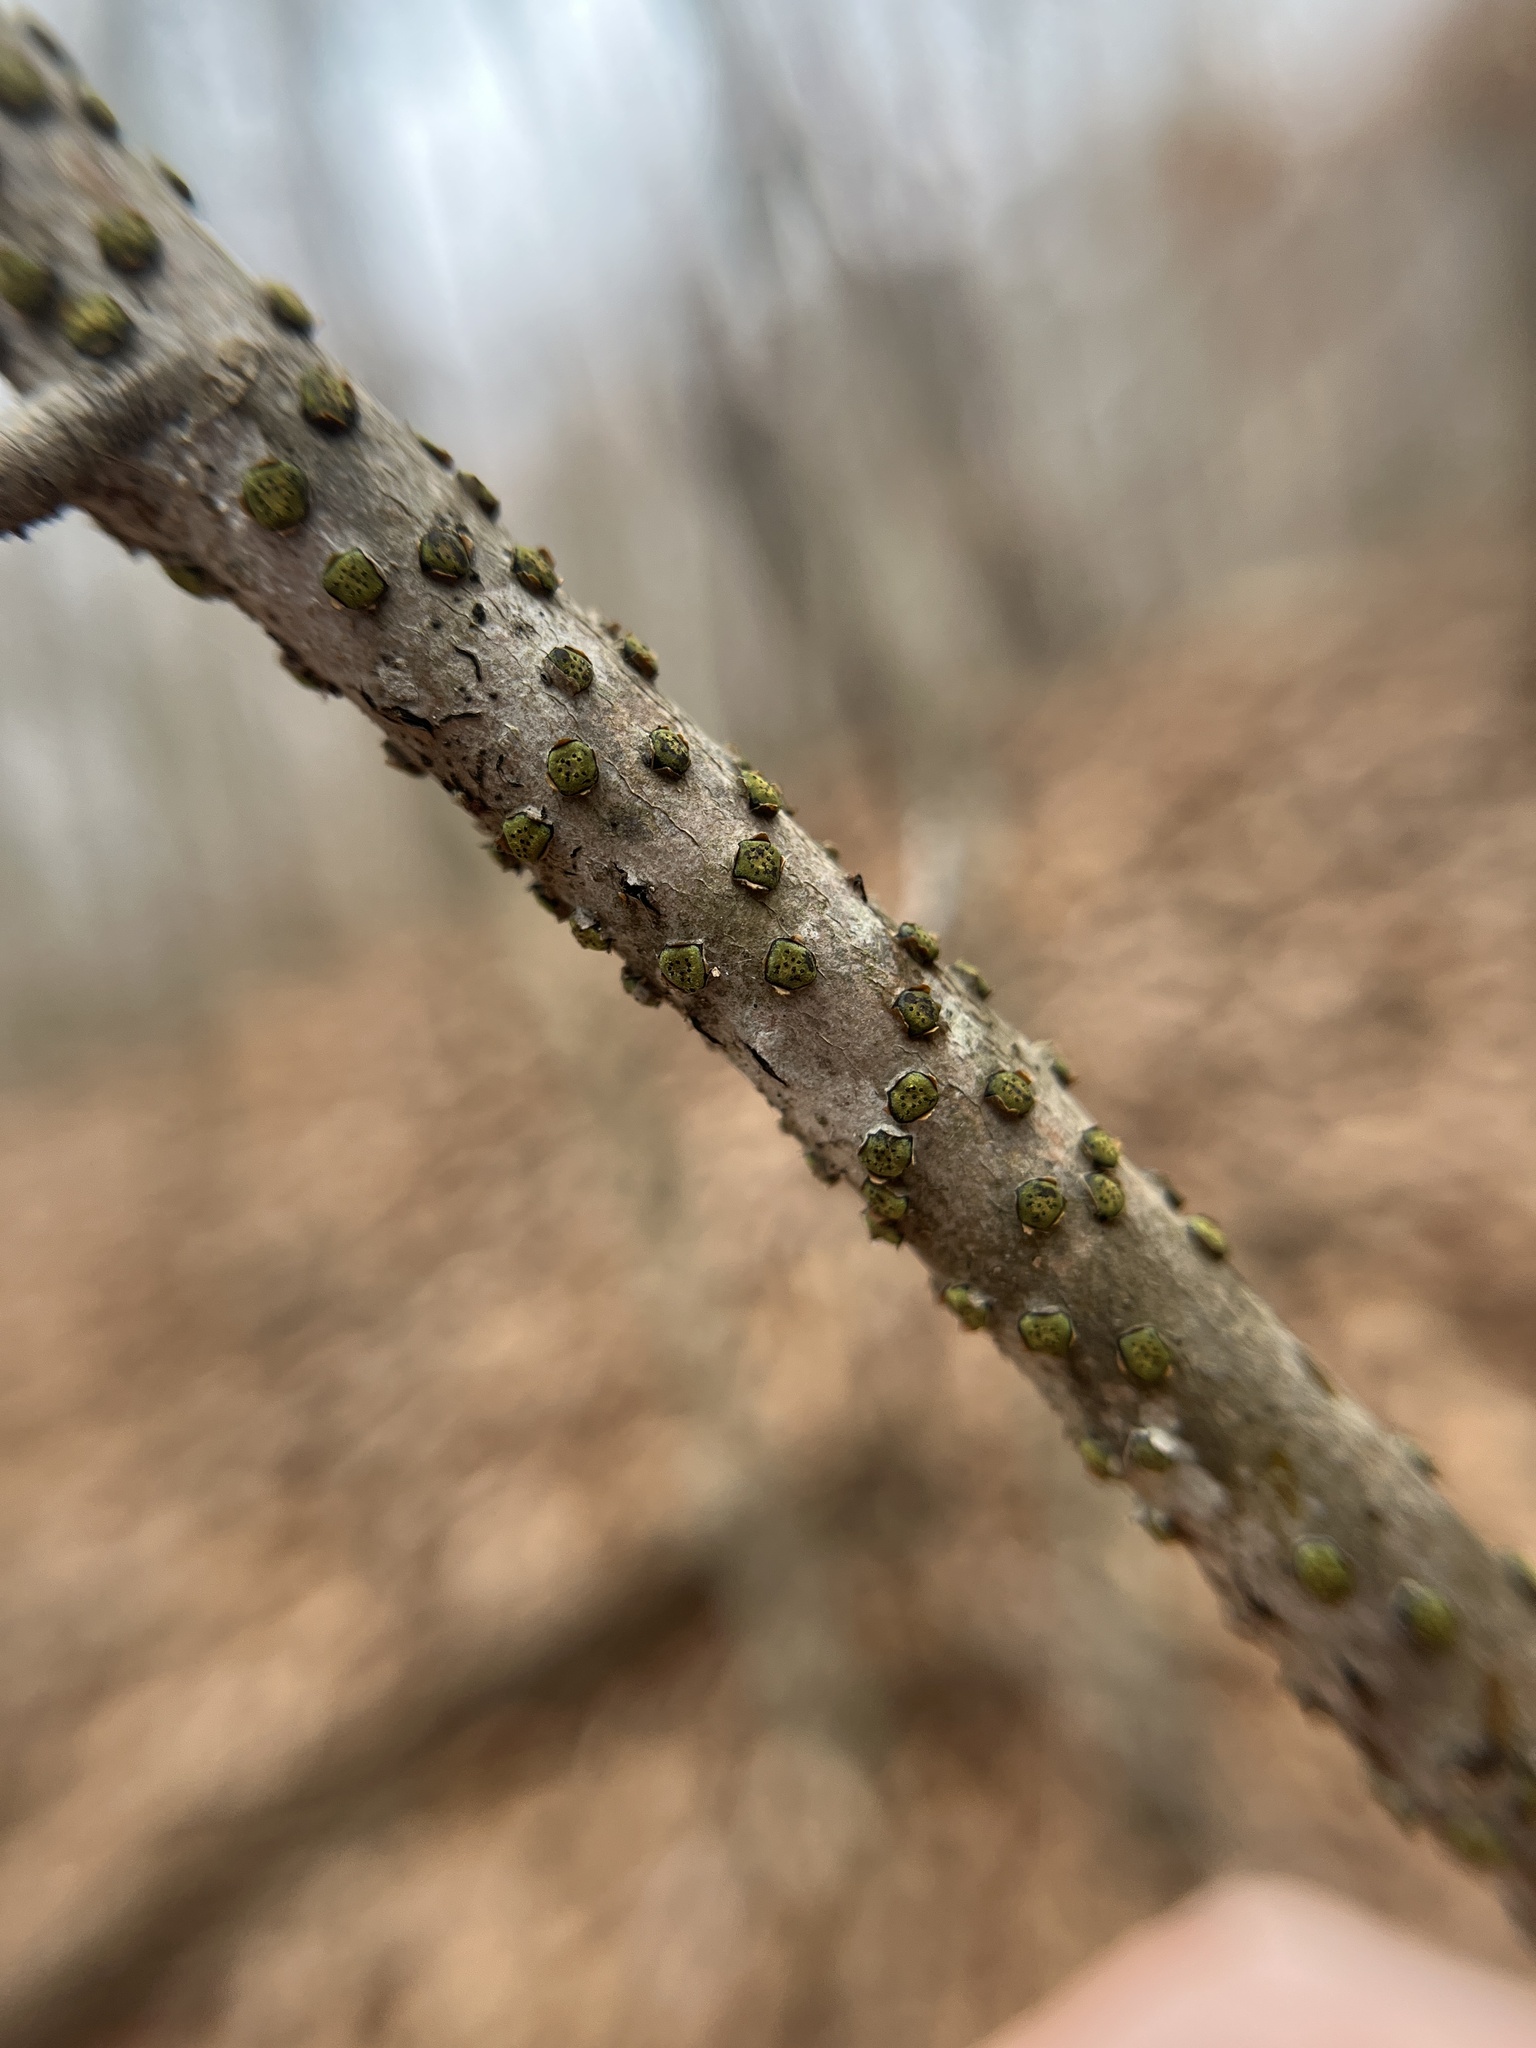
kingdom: Fungi
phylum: Ascomycota
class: Sordariomycetes
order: Xylariales
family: Diatrypaceae
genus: Diatrype
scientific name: Diatrype virescens
